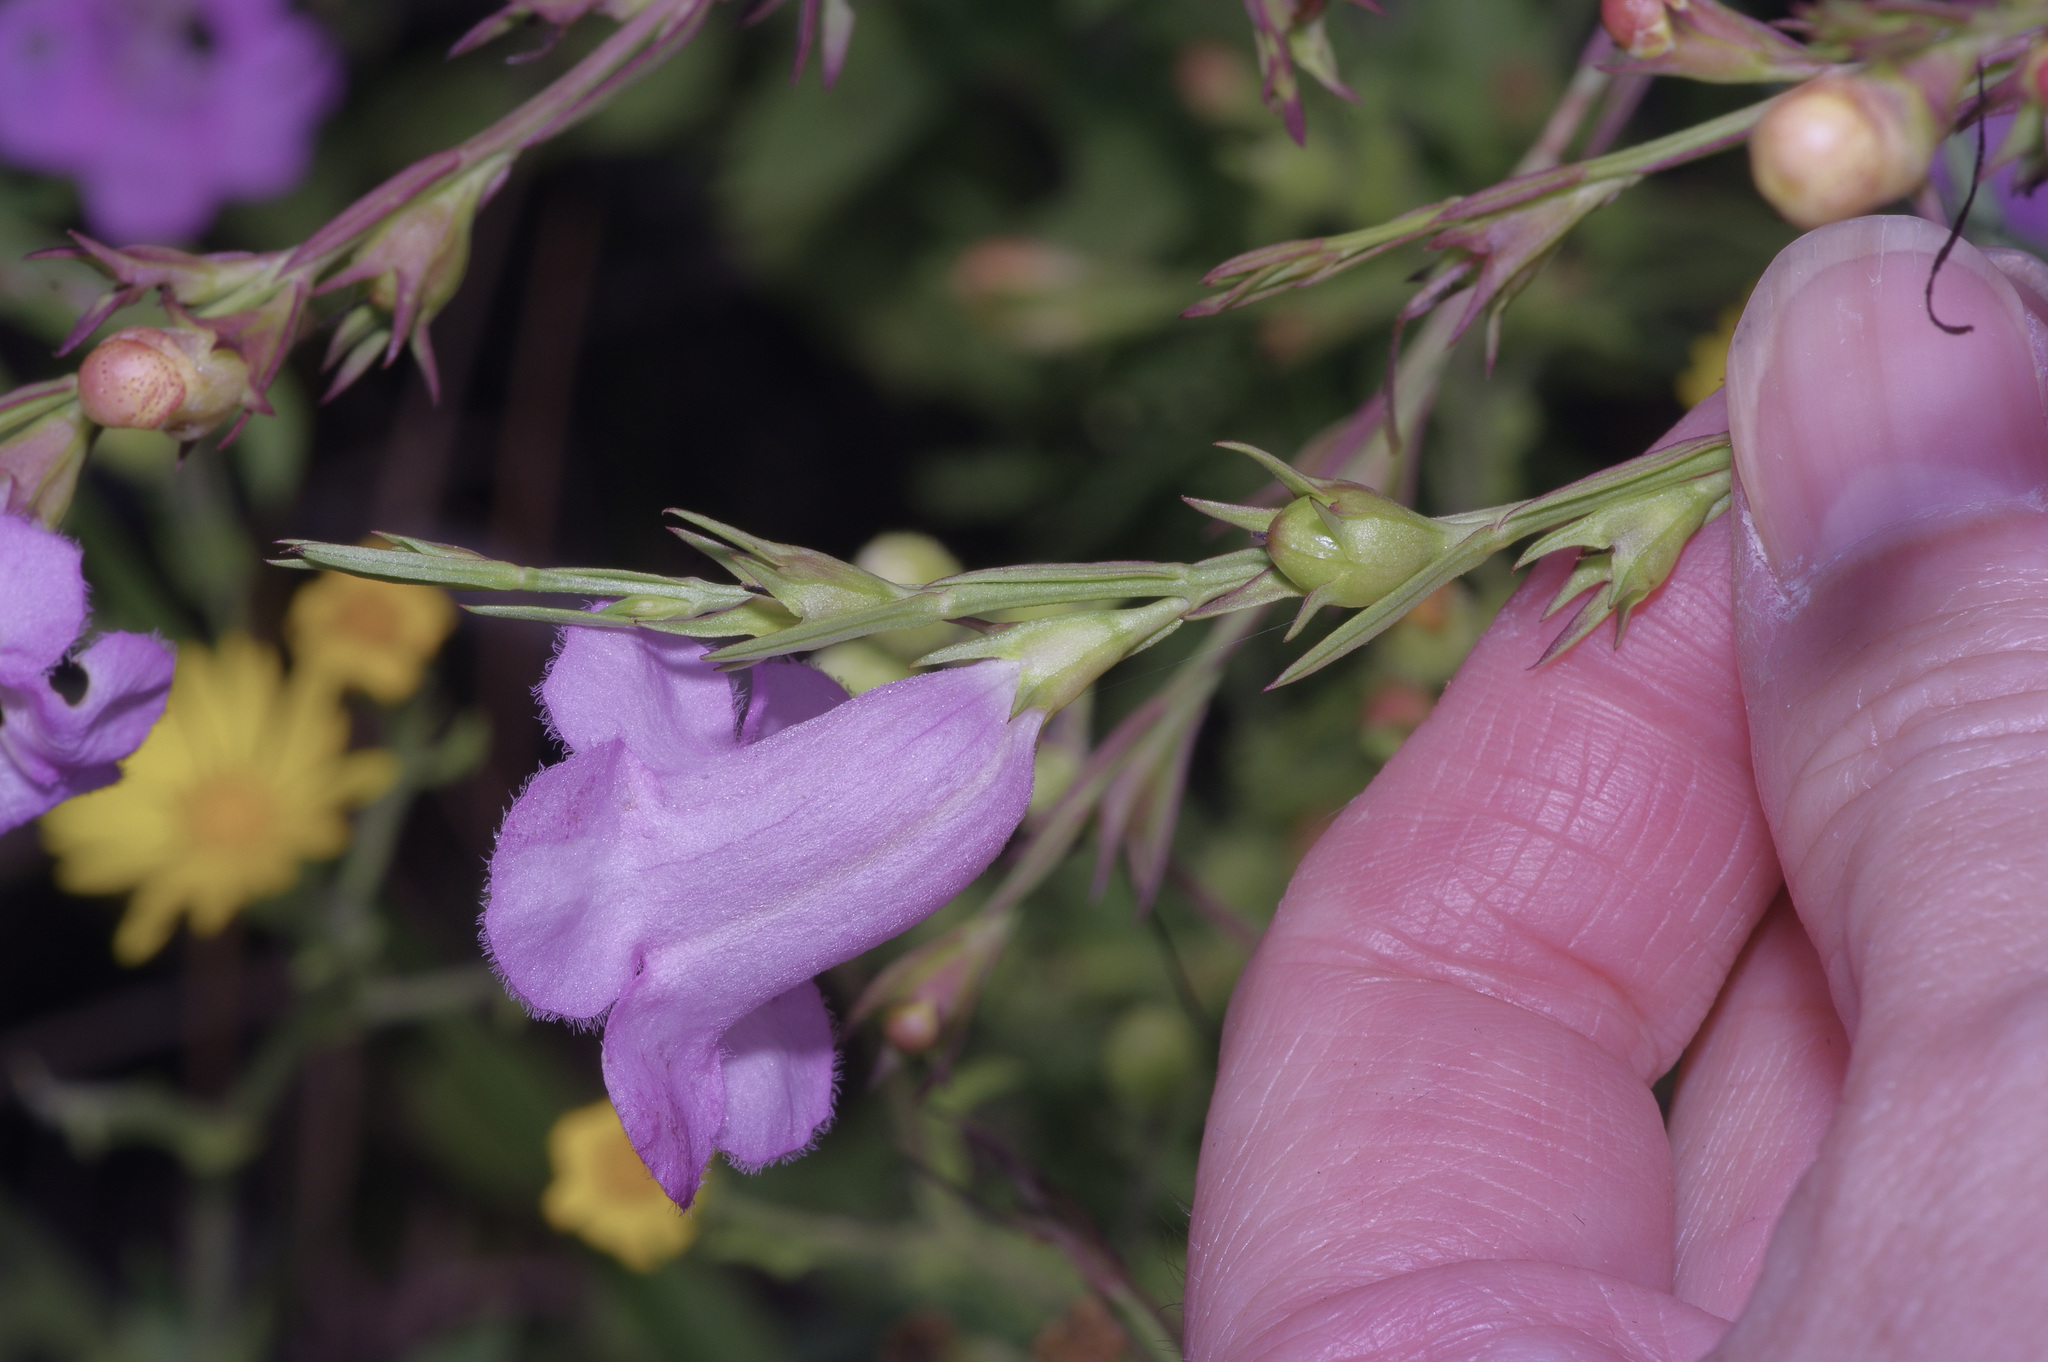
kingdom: Plantae
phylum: Tracheophyta
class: Magnoliopsida
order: Lamiales
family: Orobanchaceae
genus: Agalinis
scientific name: Agalinis heterophylla
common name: Prairie agalinis
